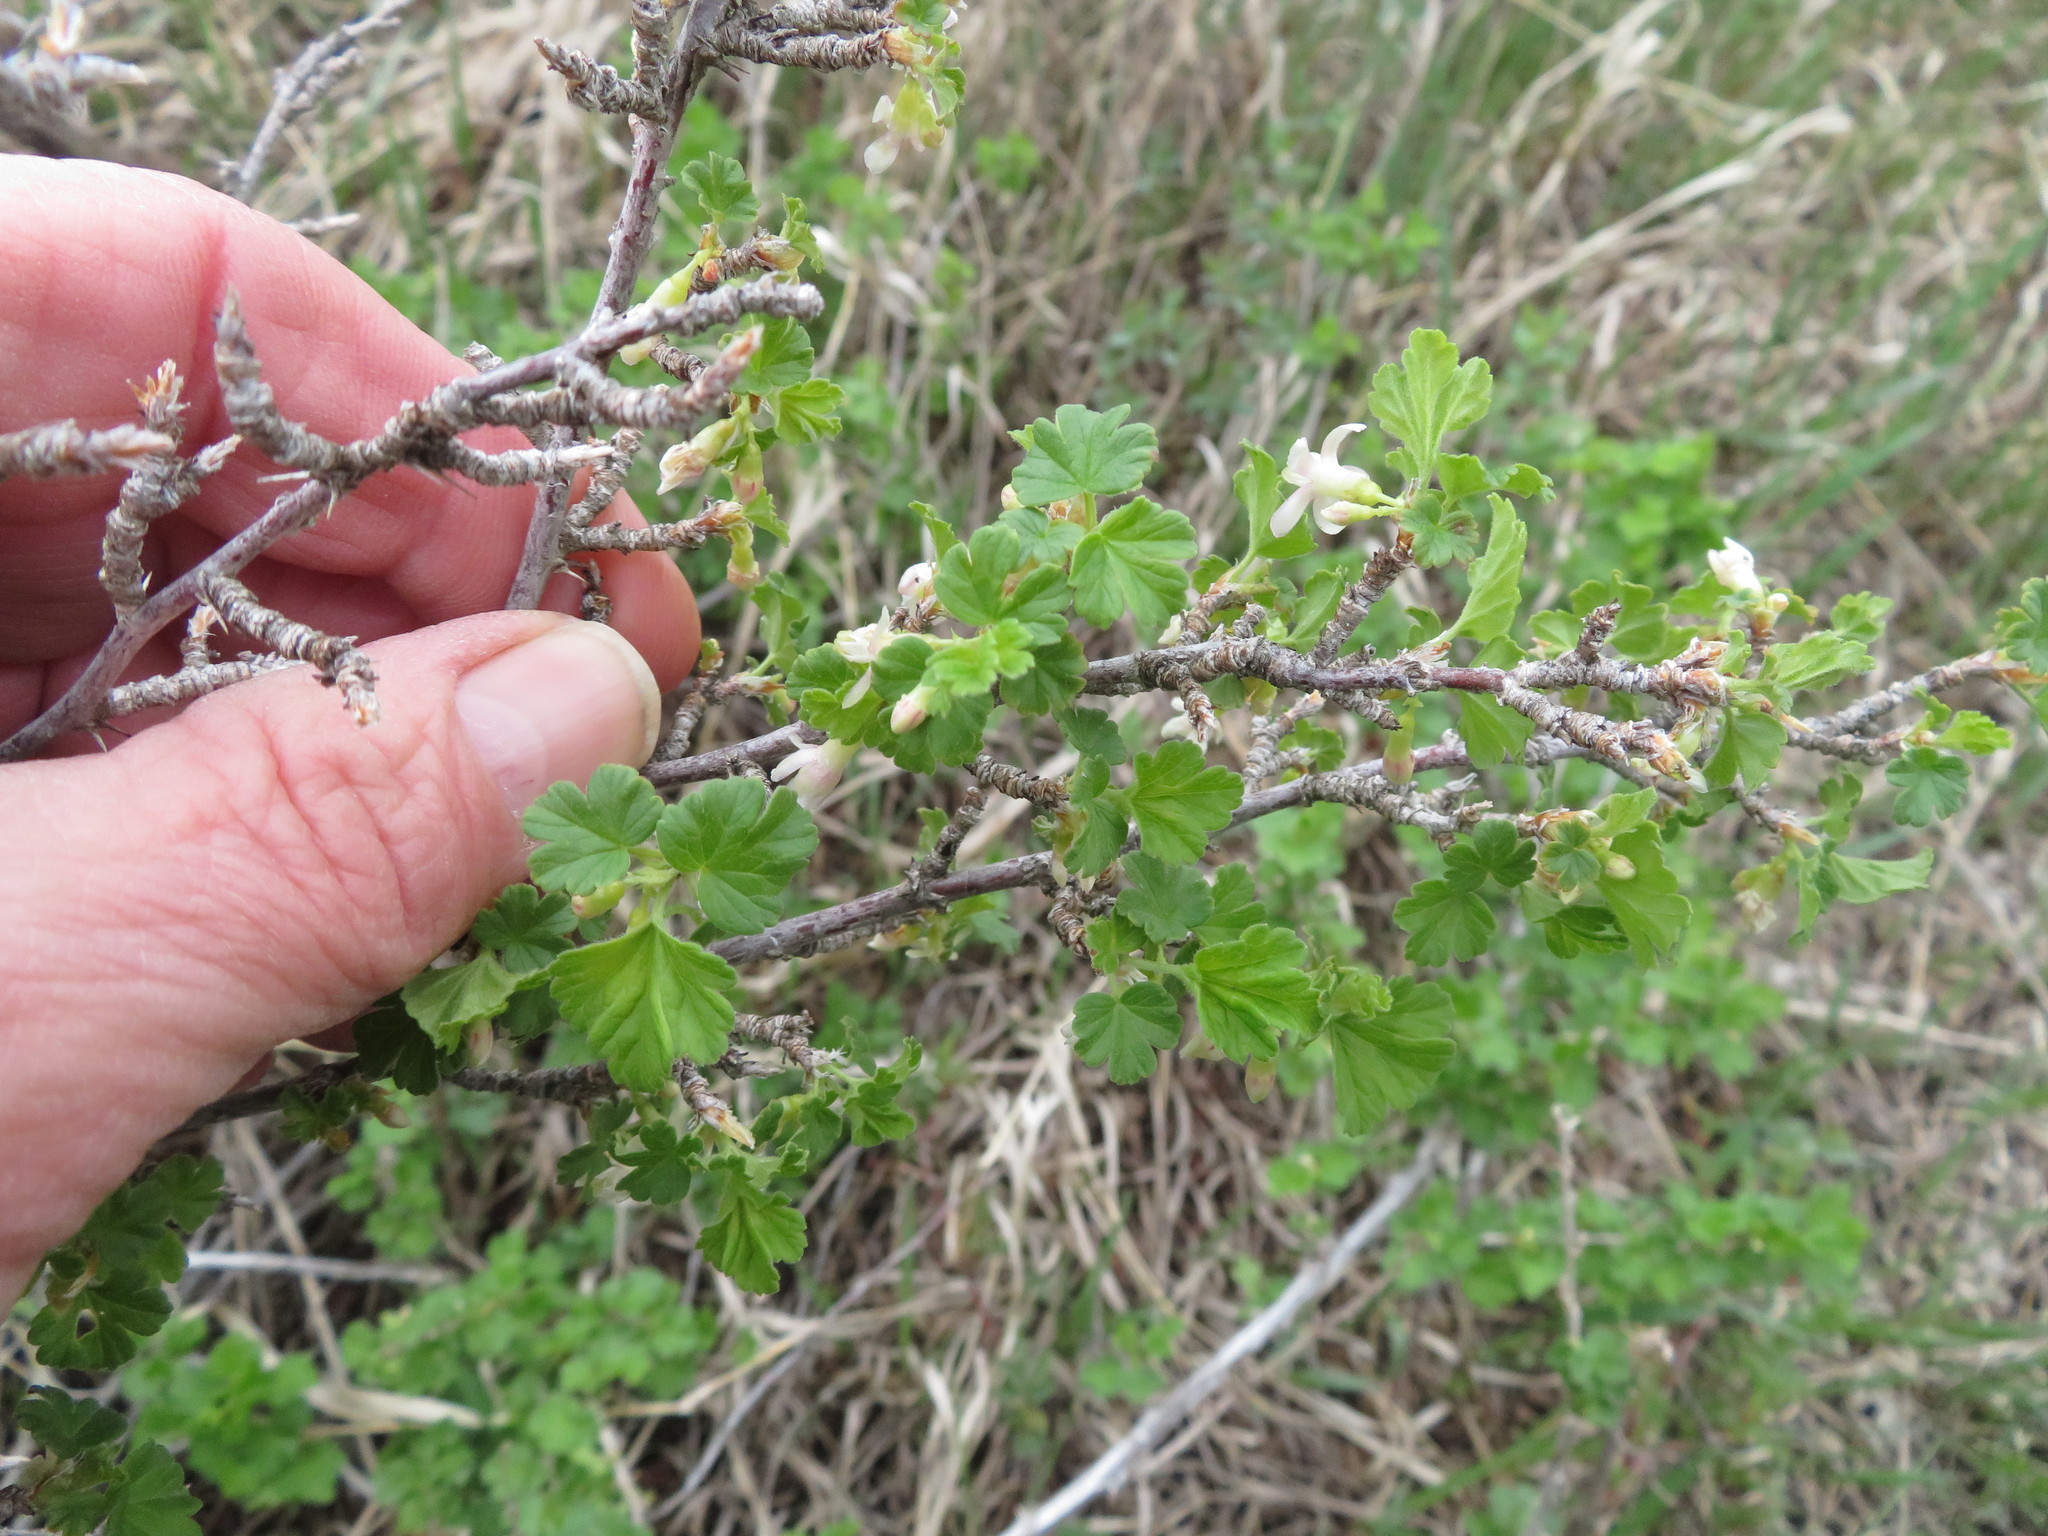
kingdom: Plantae
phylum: Tracheophyta
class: Magnoliopsida
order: Saxifragales
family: Grossulariaceae
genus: Ribes
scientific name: Ribes oxyacanthoides
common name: Northern gooseberry
